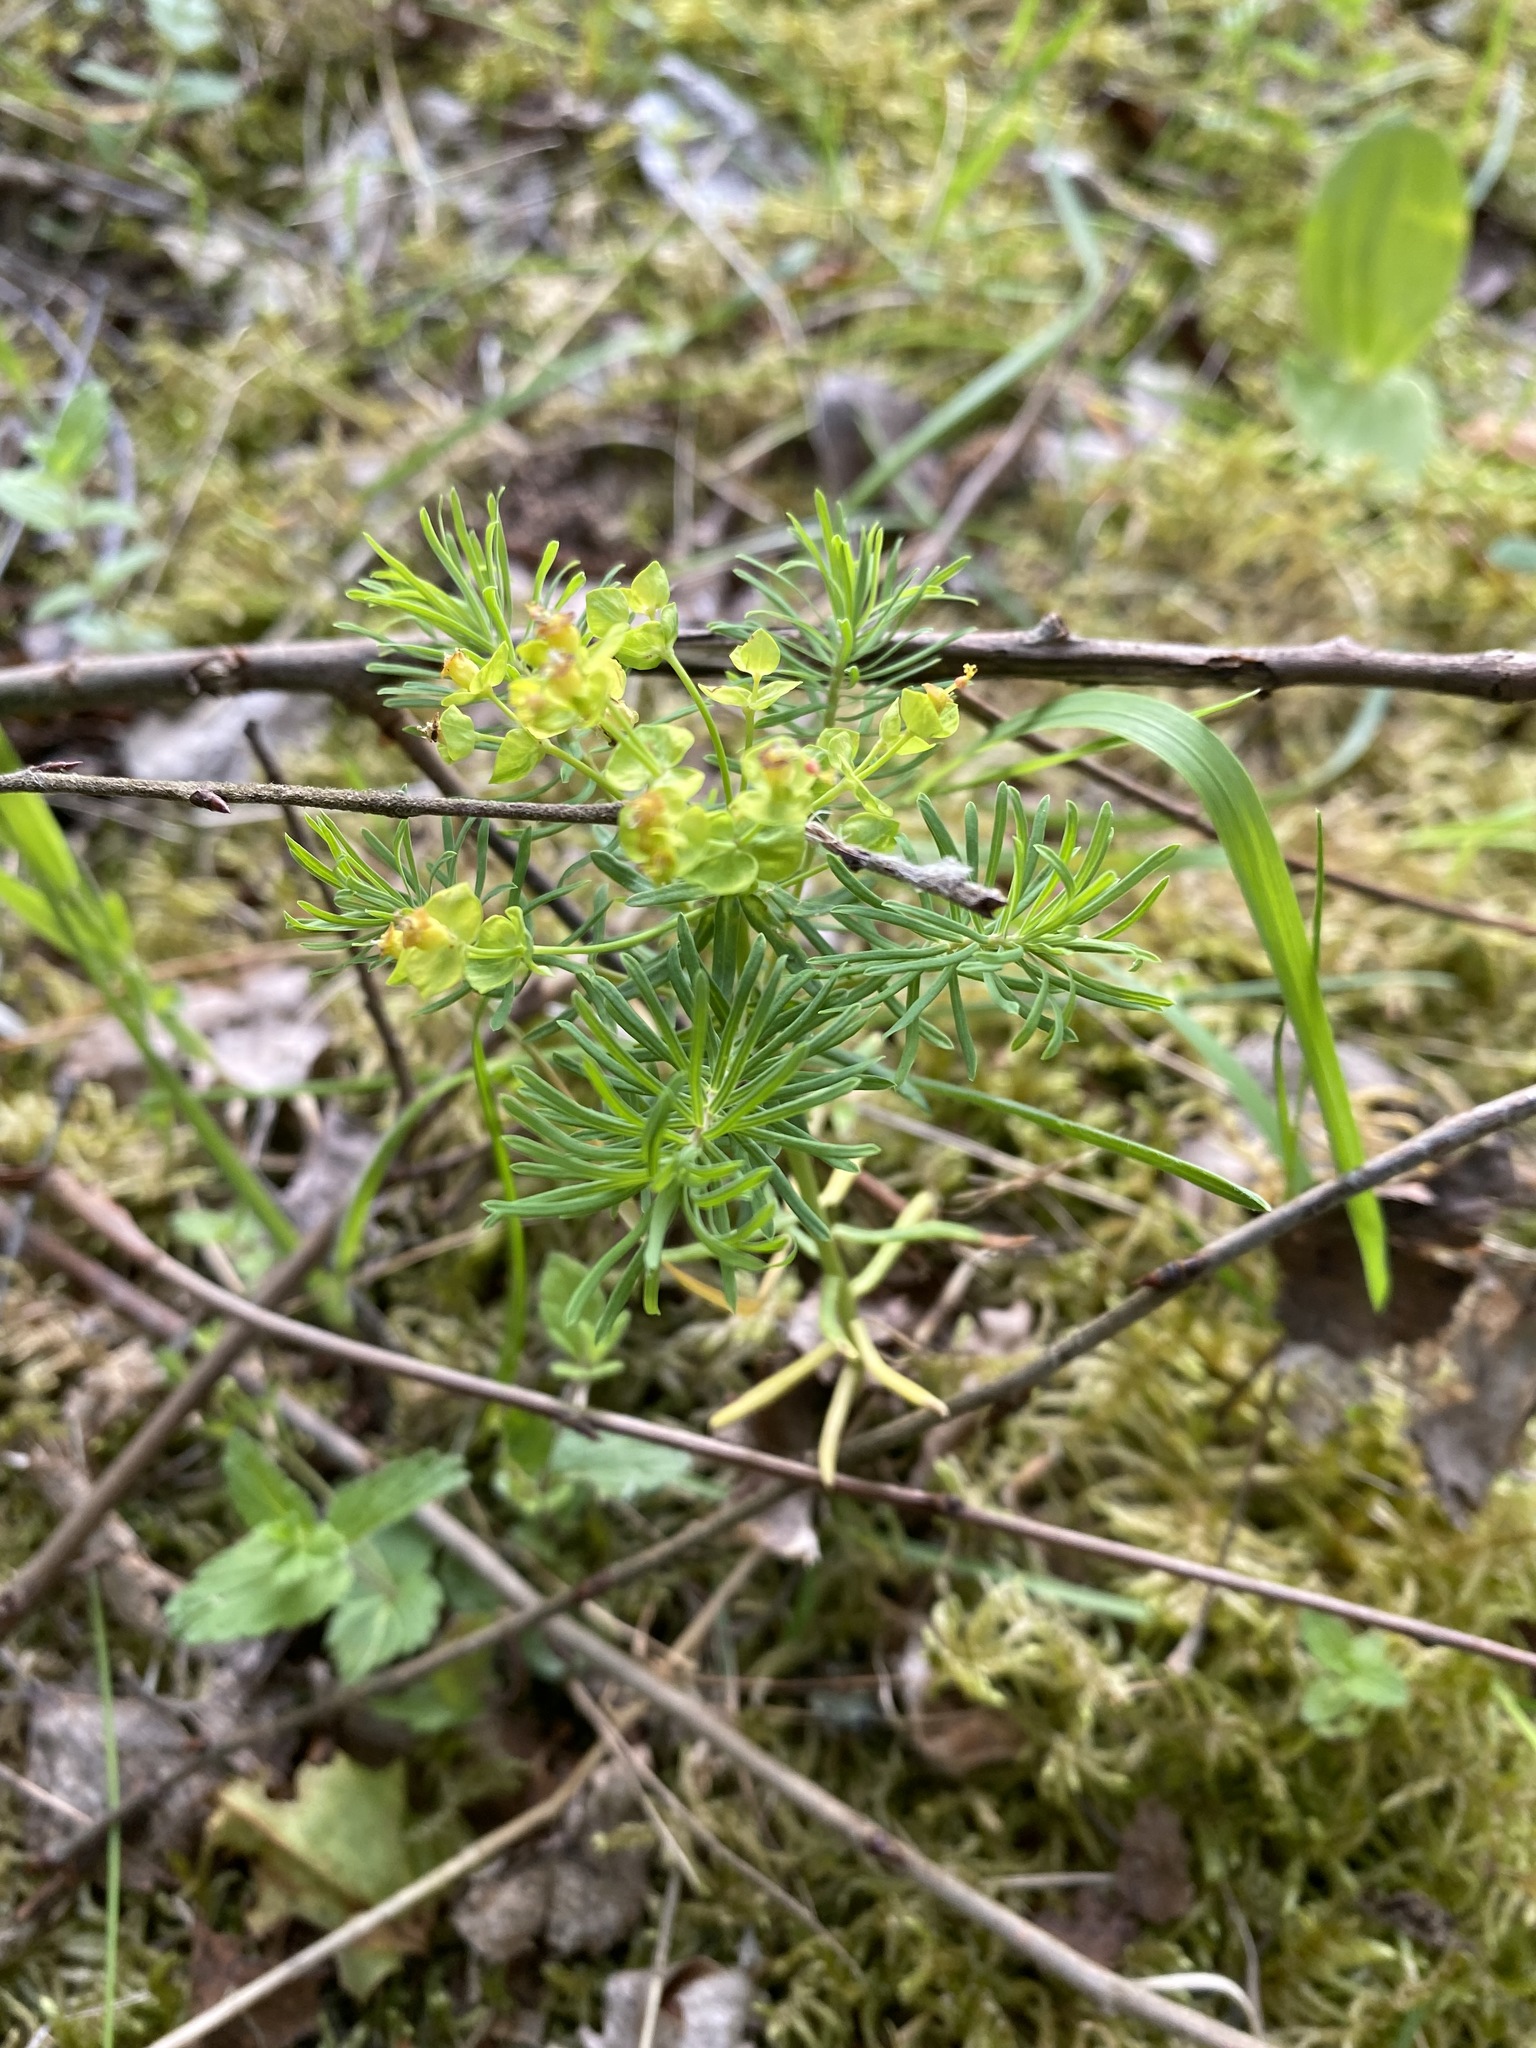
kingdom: Plantae
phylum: Tracheophyta
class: Magnoliopsida
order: Malpighiales
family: Euphorbiaceae
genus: Euphorbia
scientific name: Euphorbia cyparissias
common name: Cypress spurge
